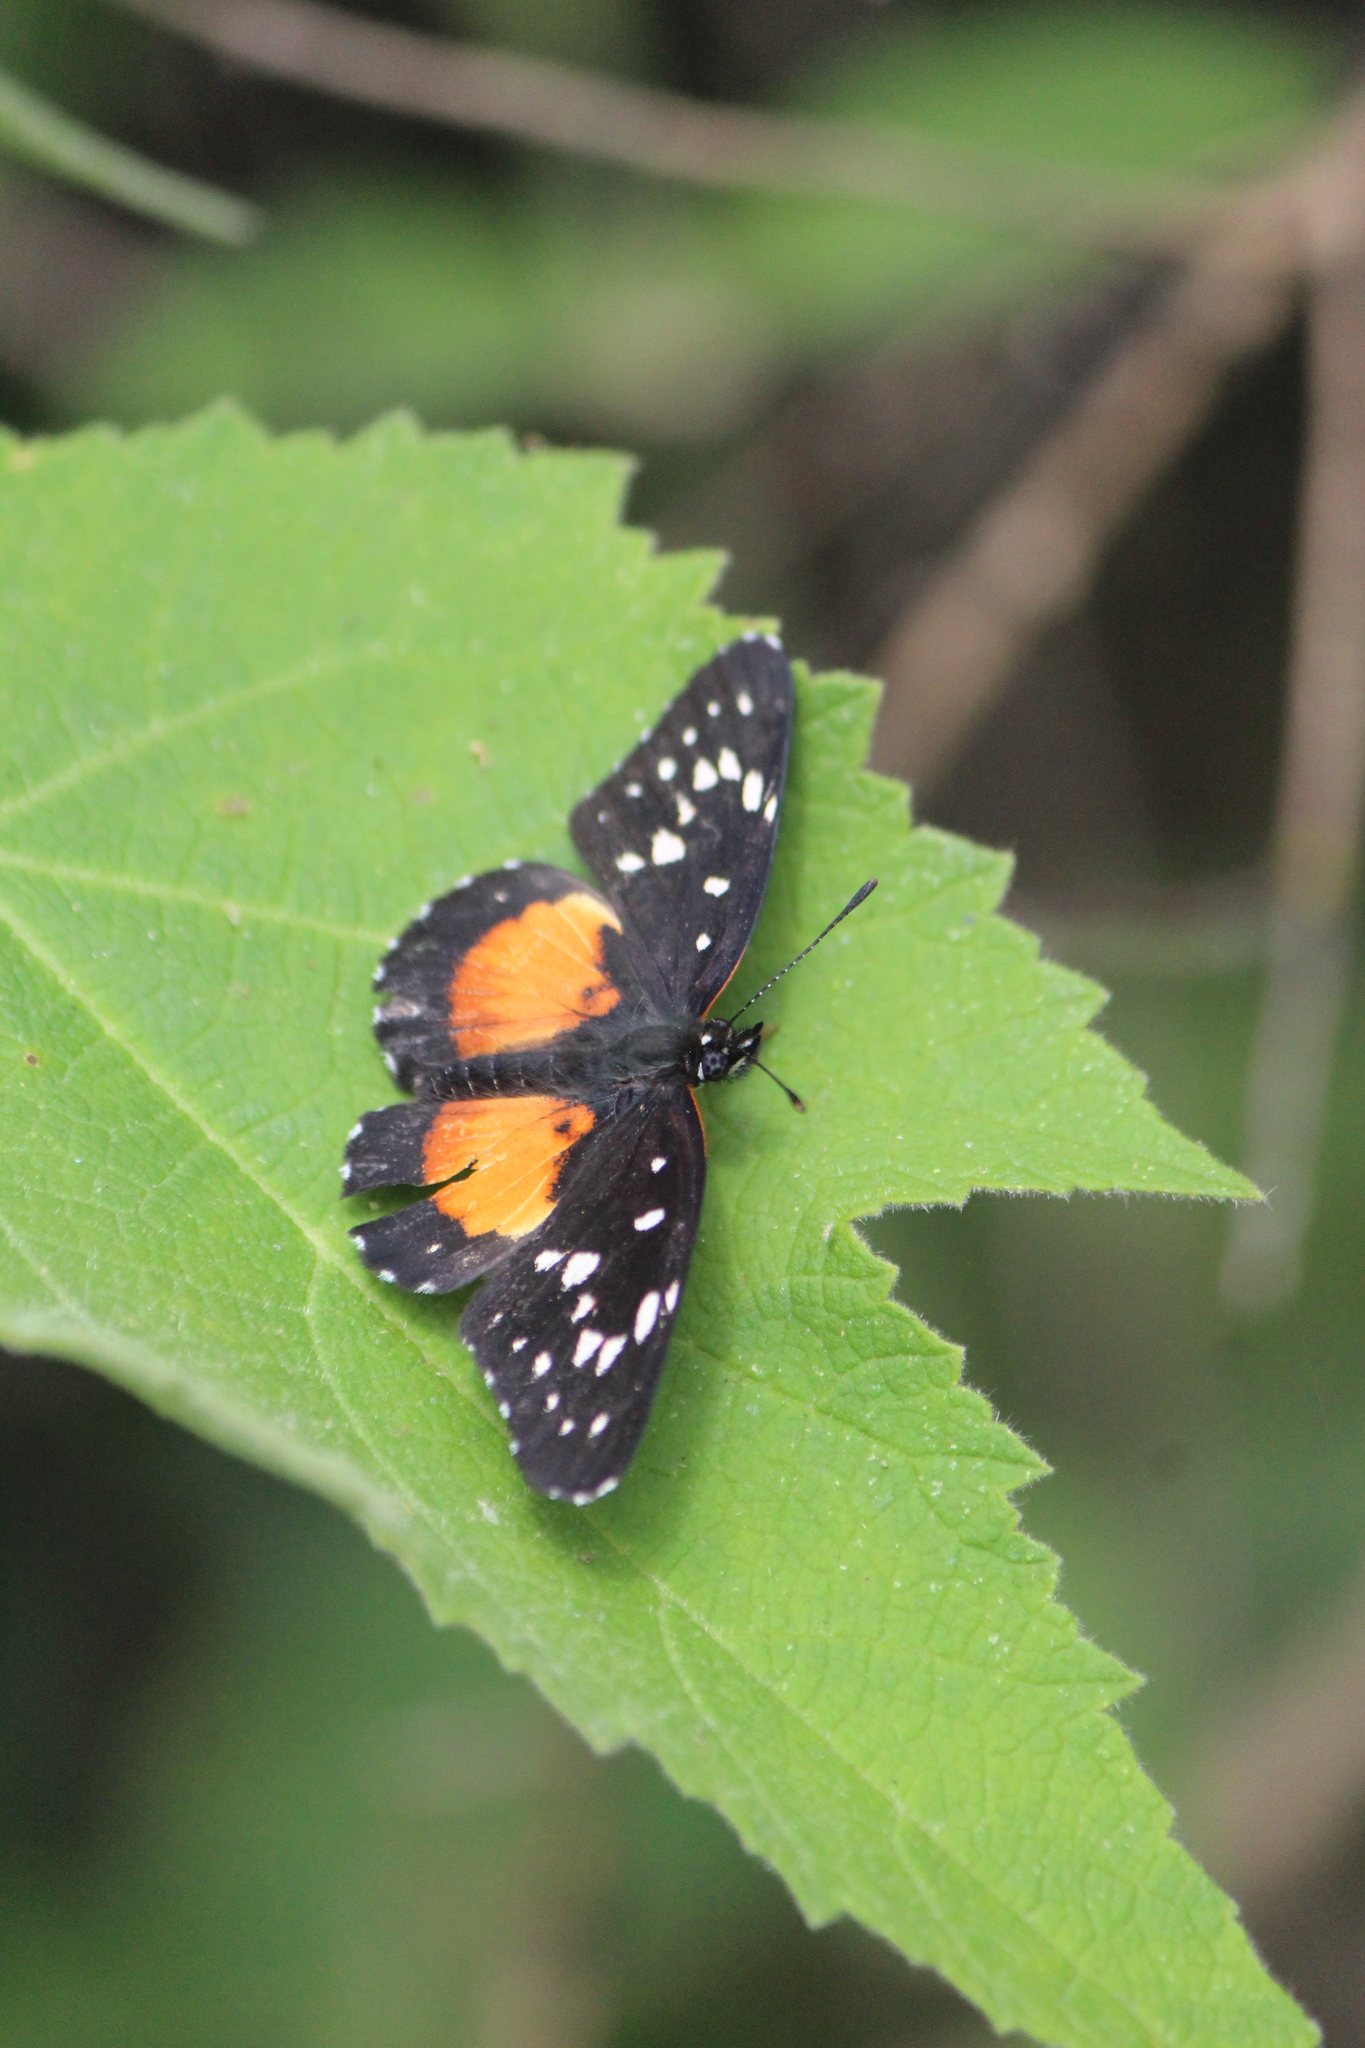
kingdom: Animalia
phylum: Arthropoda
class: Insecta
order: Lepidoptera
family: Nymphalidae
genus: Chlosyne
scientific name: Chlosyne rosita
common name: Rosita patch
